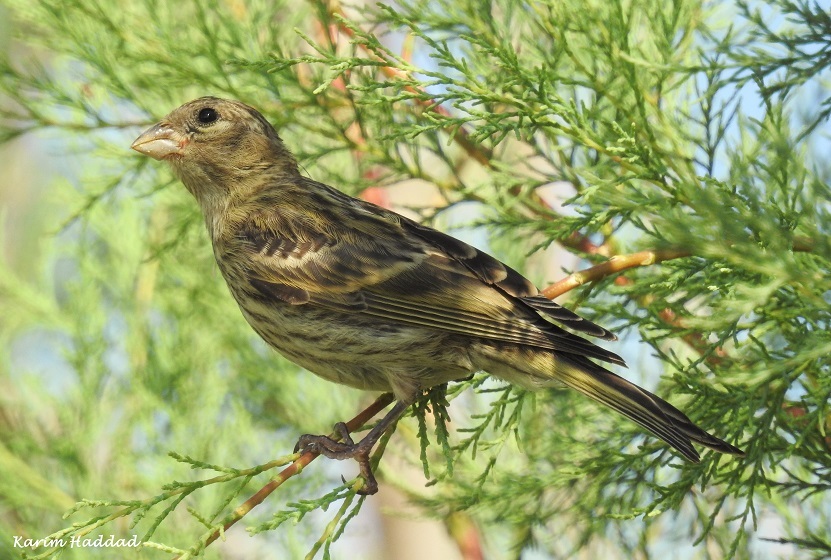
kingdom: Animalia
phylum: Chordata
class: Aves
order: Passeriformes
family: Fringillidae
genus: Serinus
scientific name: Serinus serinus
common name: European serin
